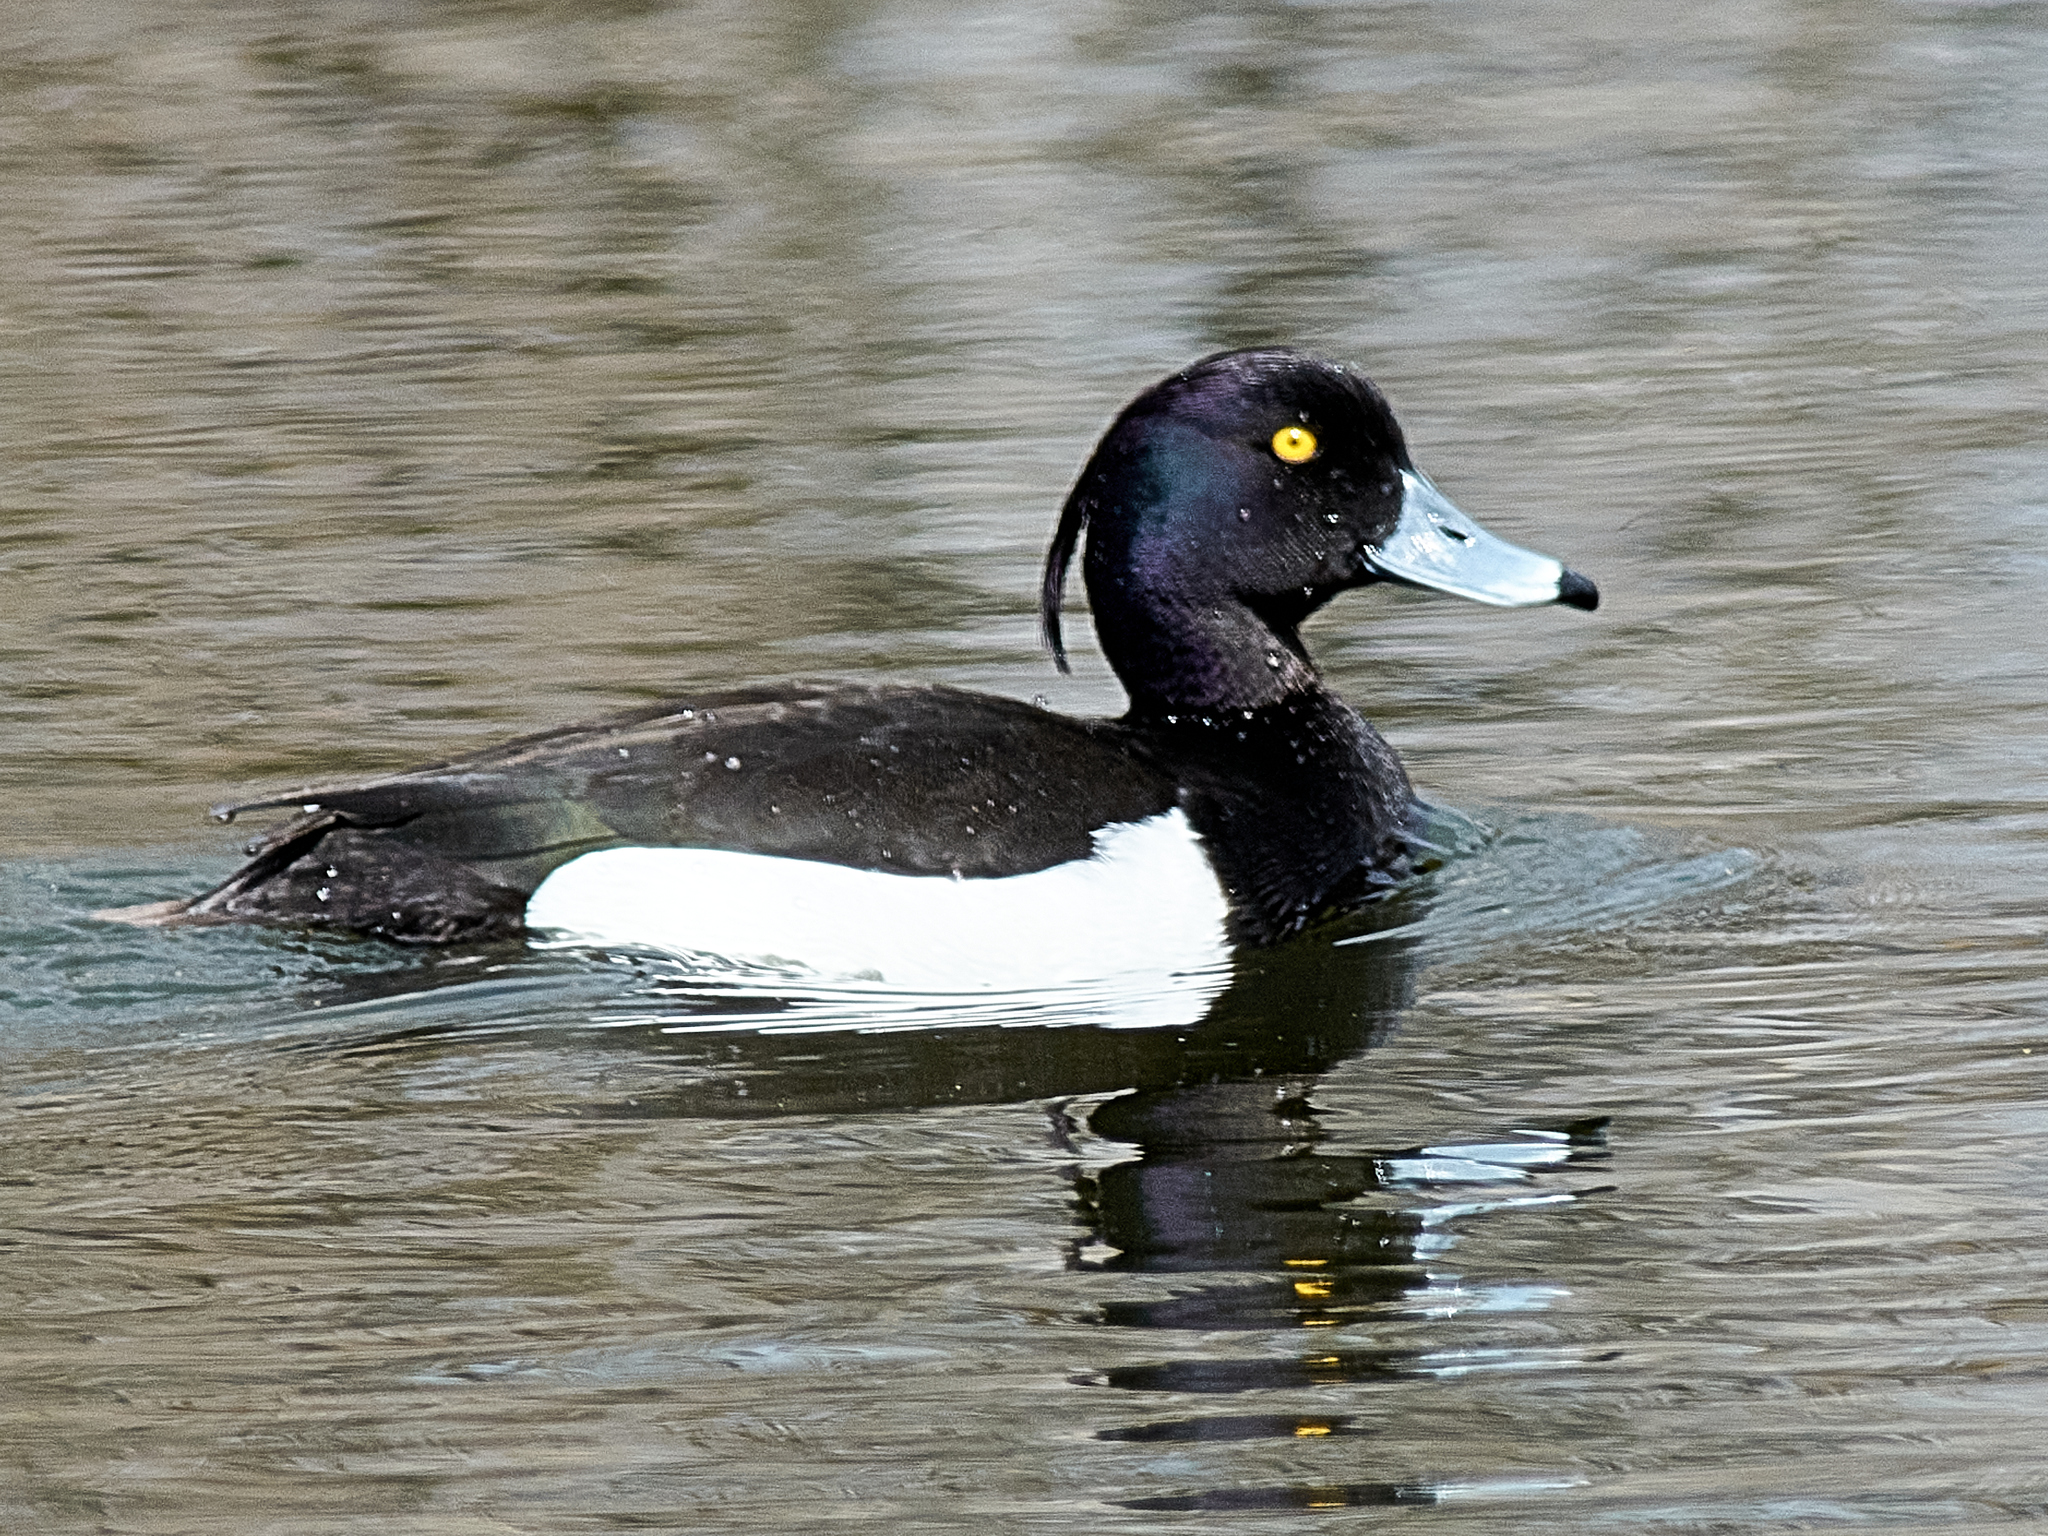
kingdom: Animalia
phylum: Chordata
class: Aves
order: Anseriformes
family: Anatidae
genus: Aythya
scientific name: Aythya fuligula
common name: Tufted duck
